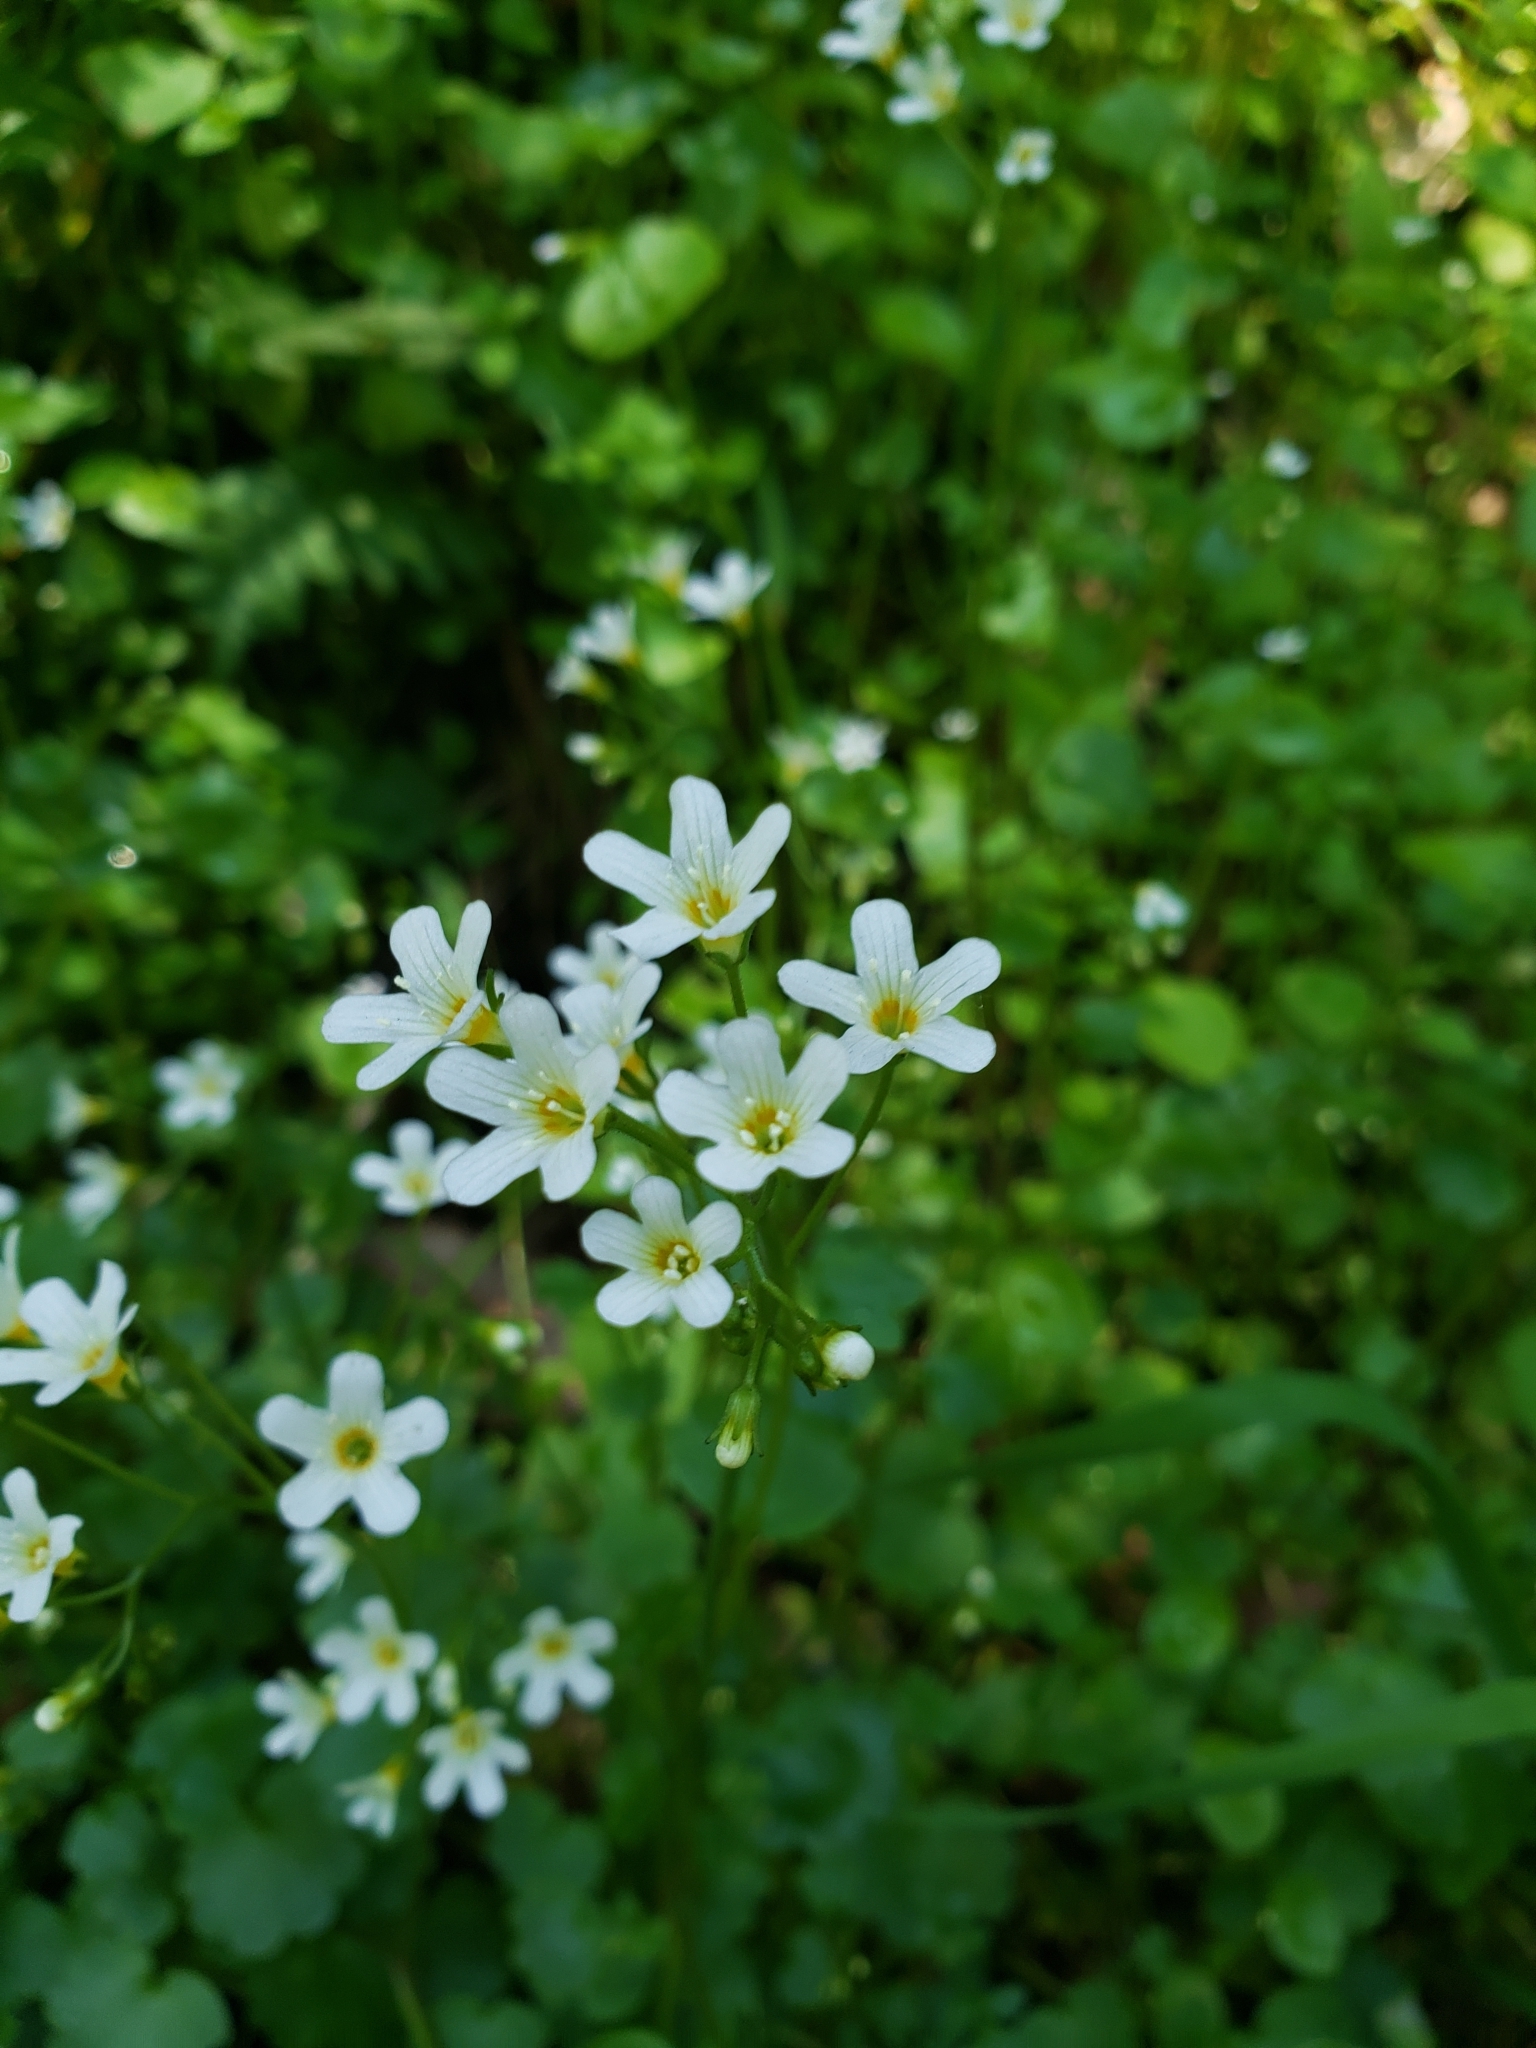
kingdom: Plantae
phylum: Tracheophyta
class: Magnoliopsida
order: Boraginales
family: Hydrophyllaceae
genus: Romanzoffia
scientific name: Romanzoffia californica
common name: California mistmaiden
